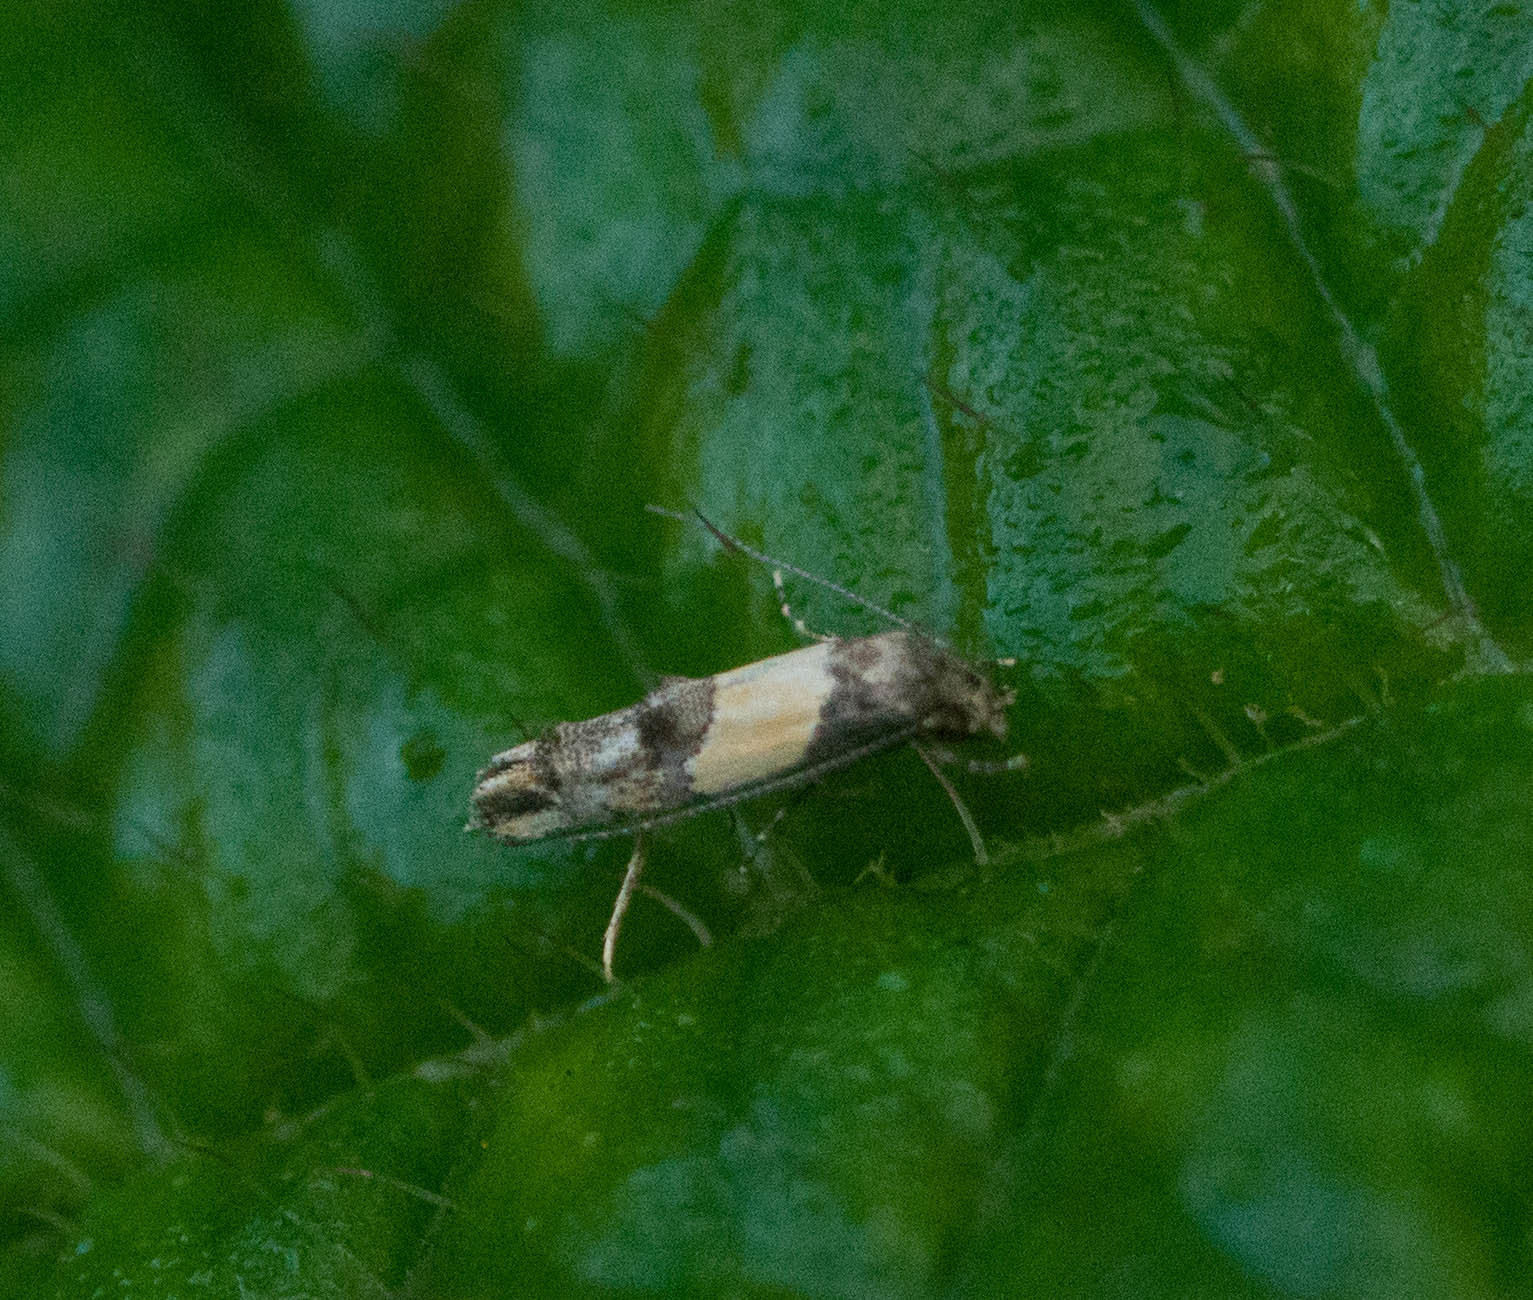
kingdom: Animalia
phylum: Arthropoda
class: Insecta
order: Lepidoptera
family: Momphidae
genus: Mompha
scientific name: Mompha trithalama
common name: Moth
